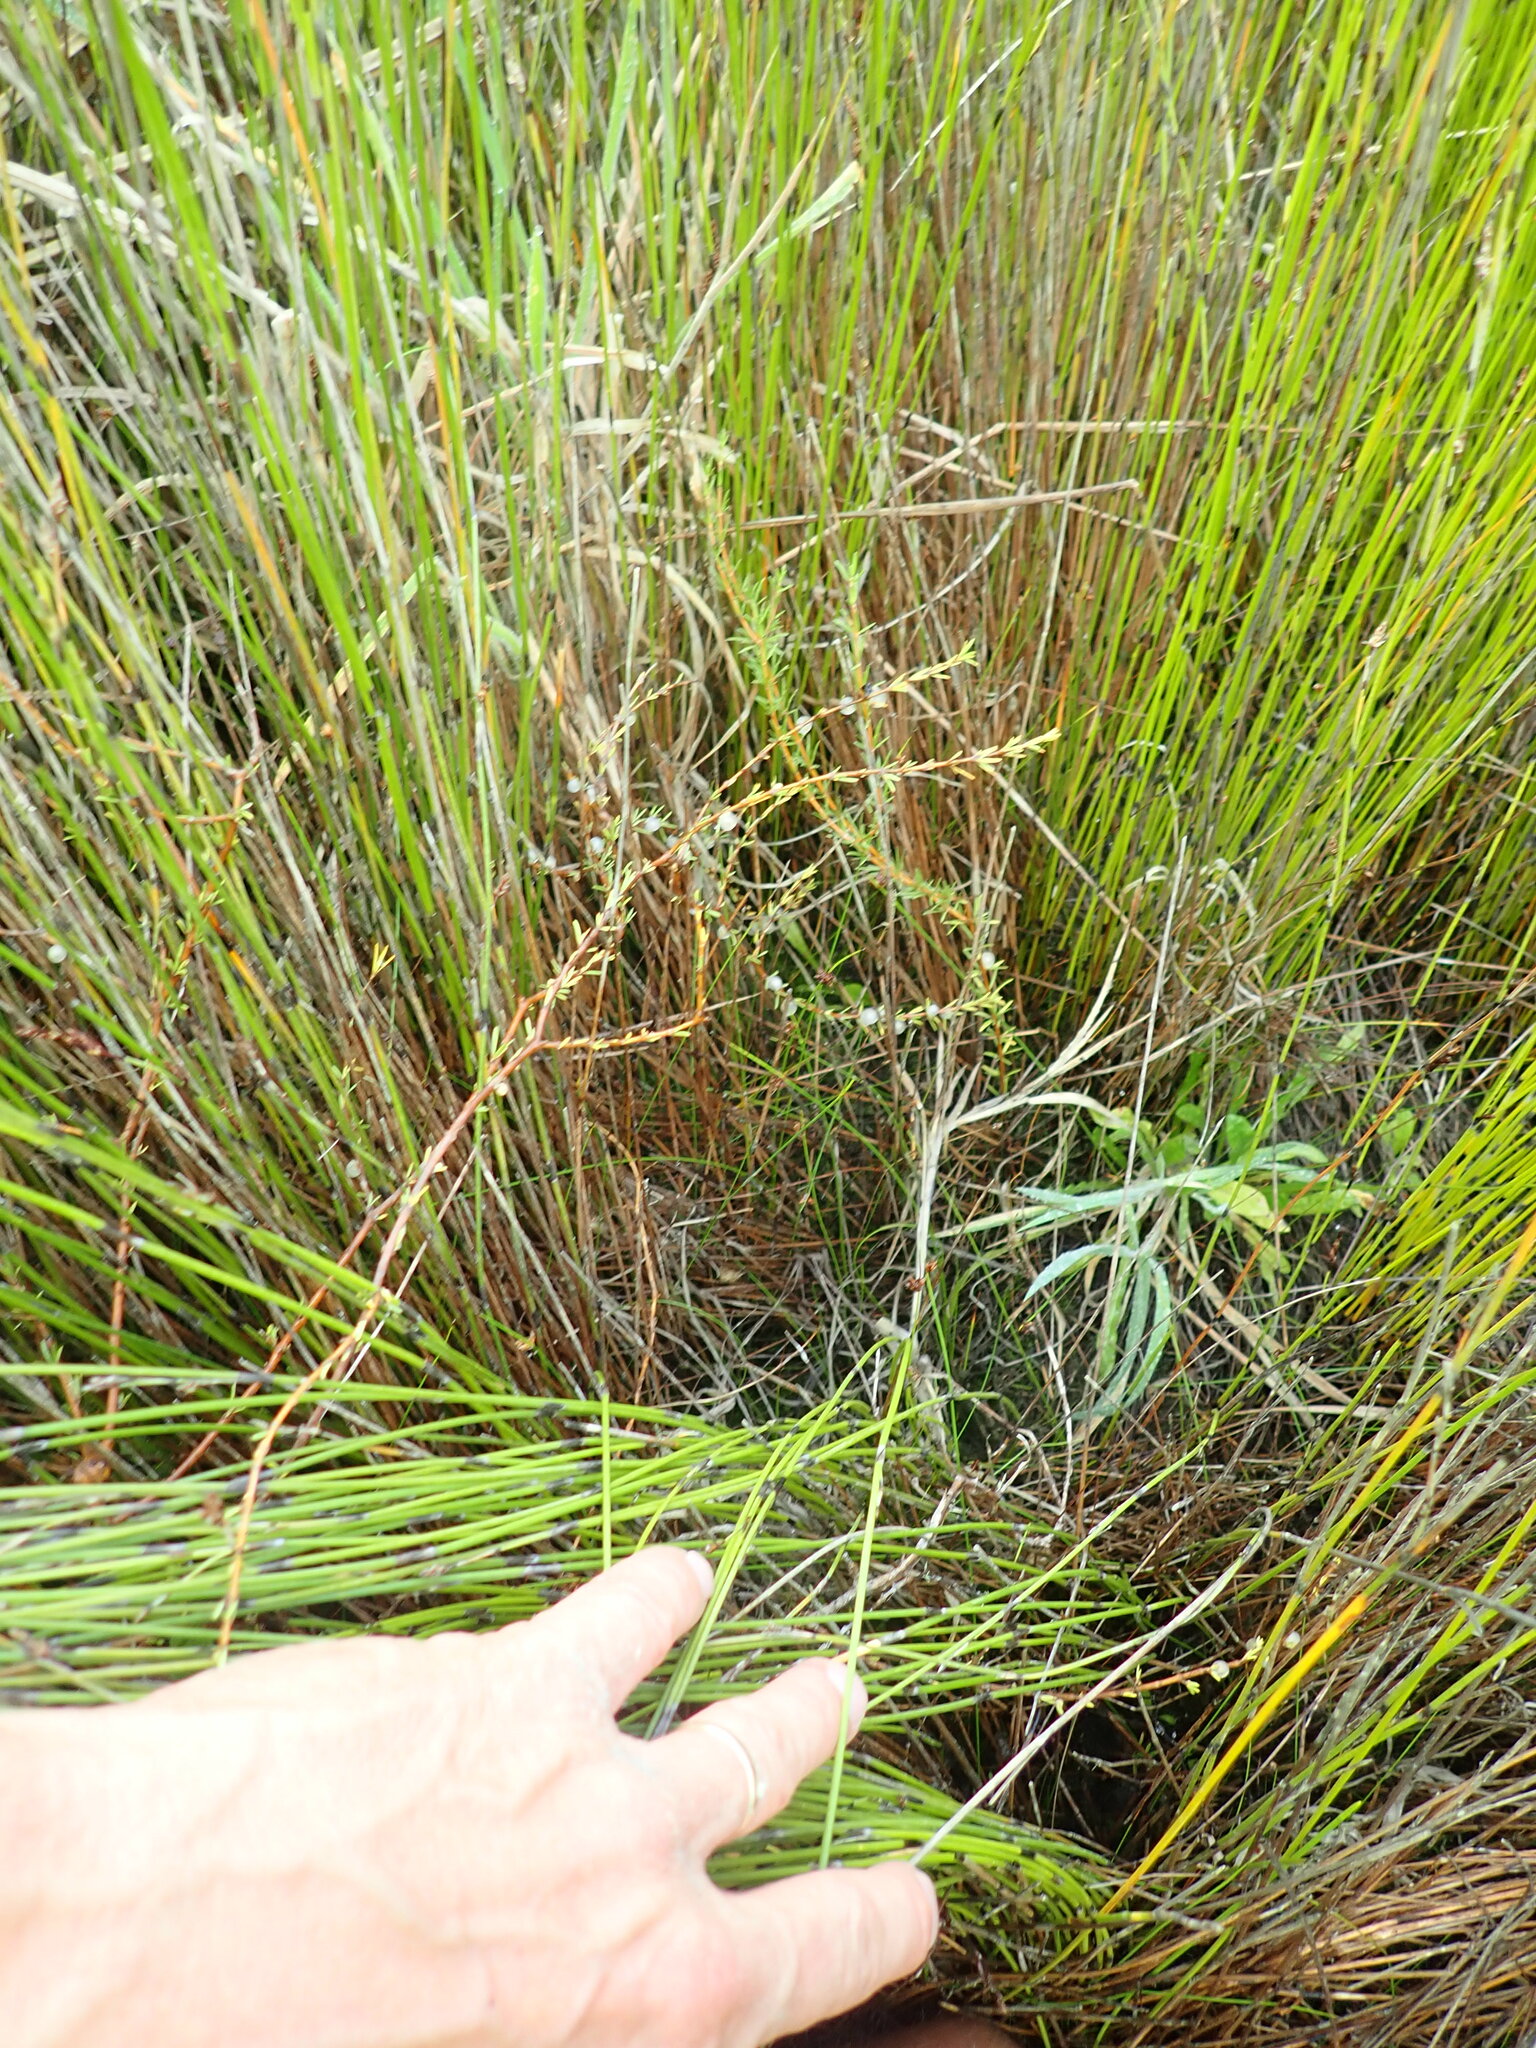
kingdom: Plantae
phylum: Tracheophyta
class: Magnoliopsida
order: Gentianales
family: Rubiaceae
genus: Coprosma
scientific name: Coprosma acerosa
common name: Sand coprosma
